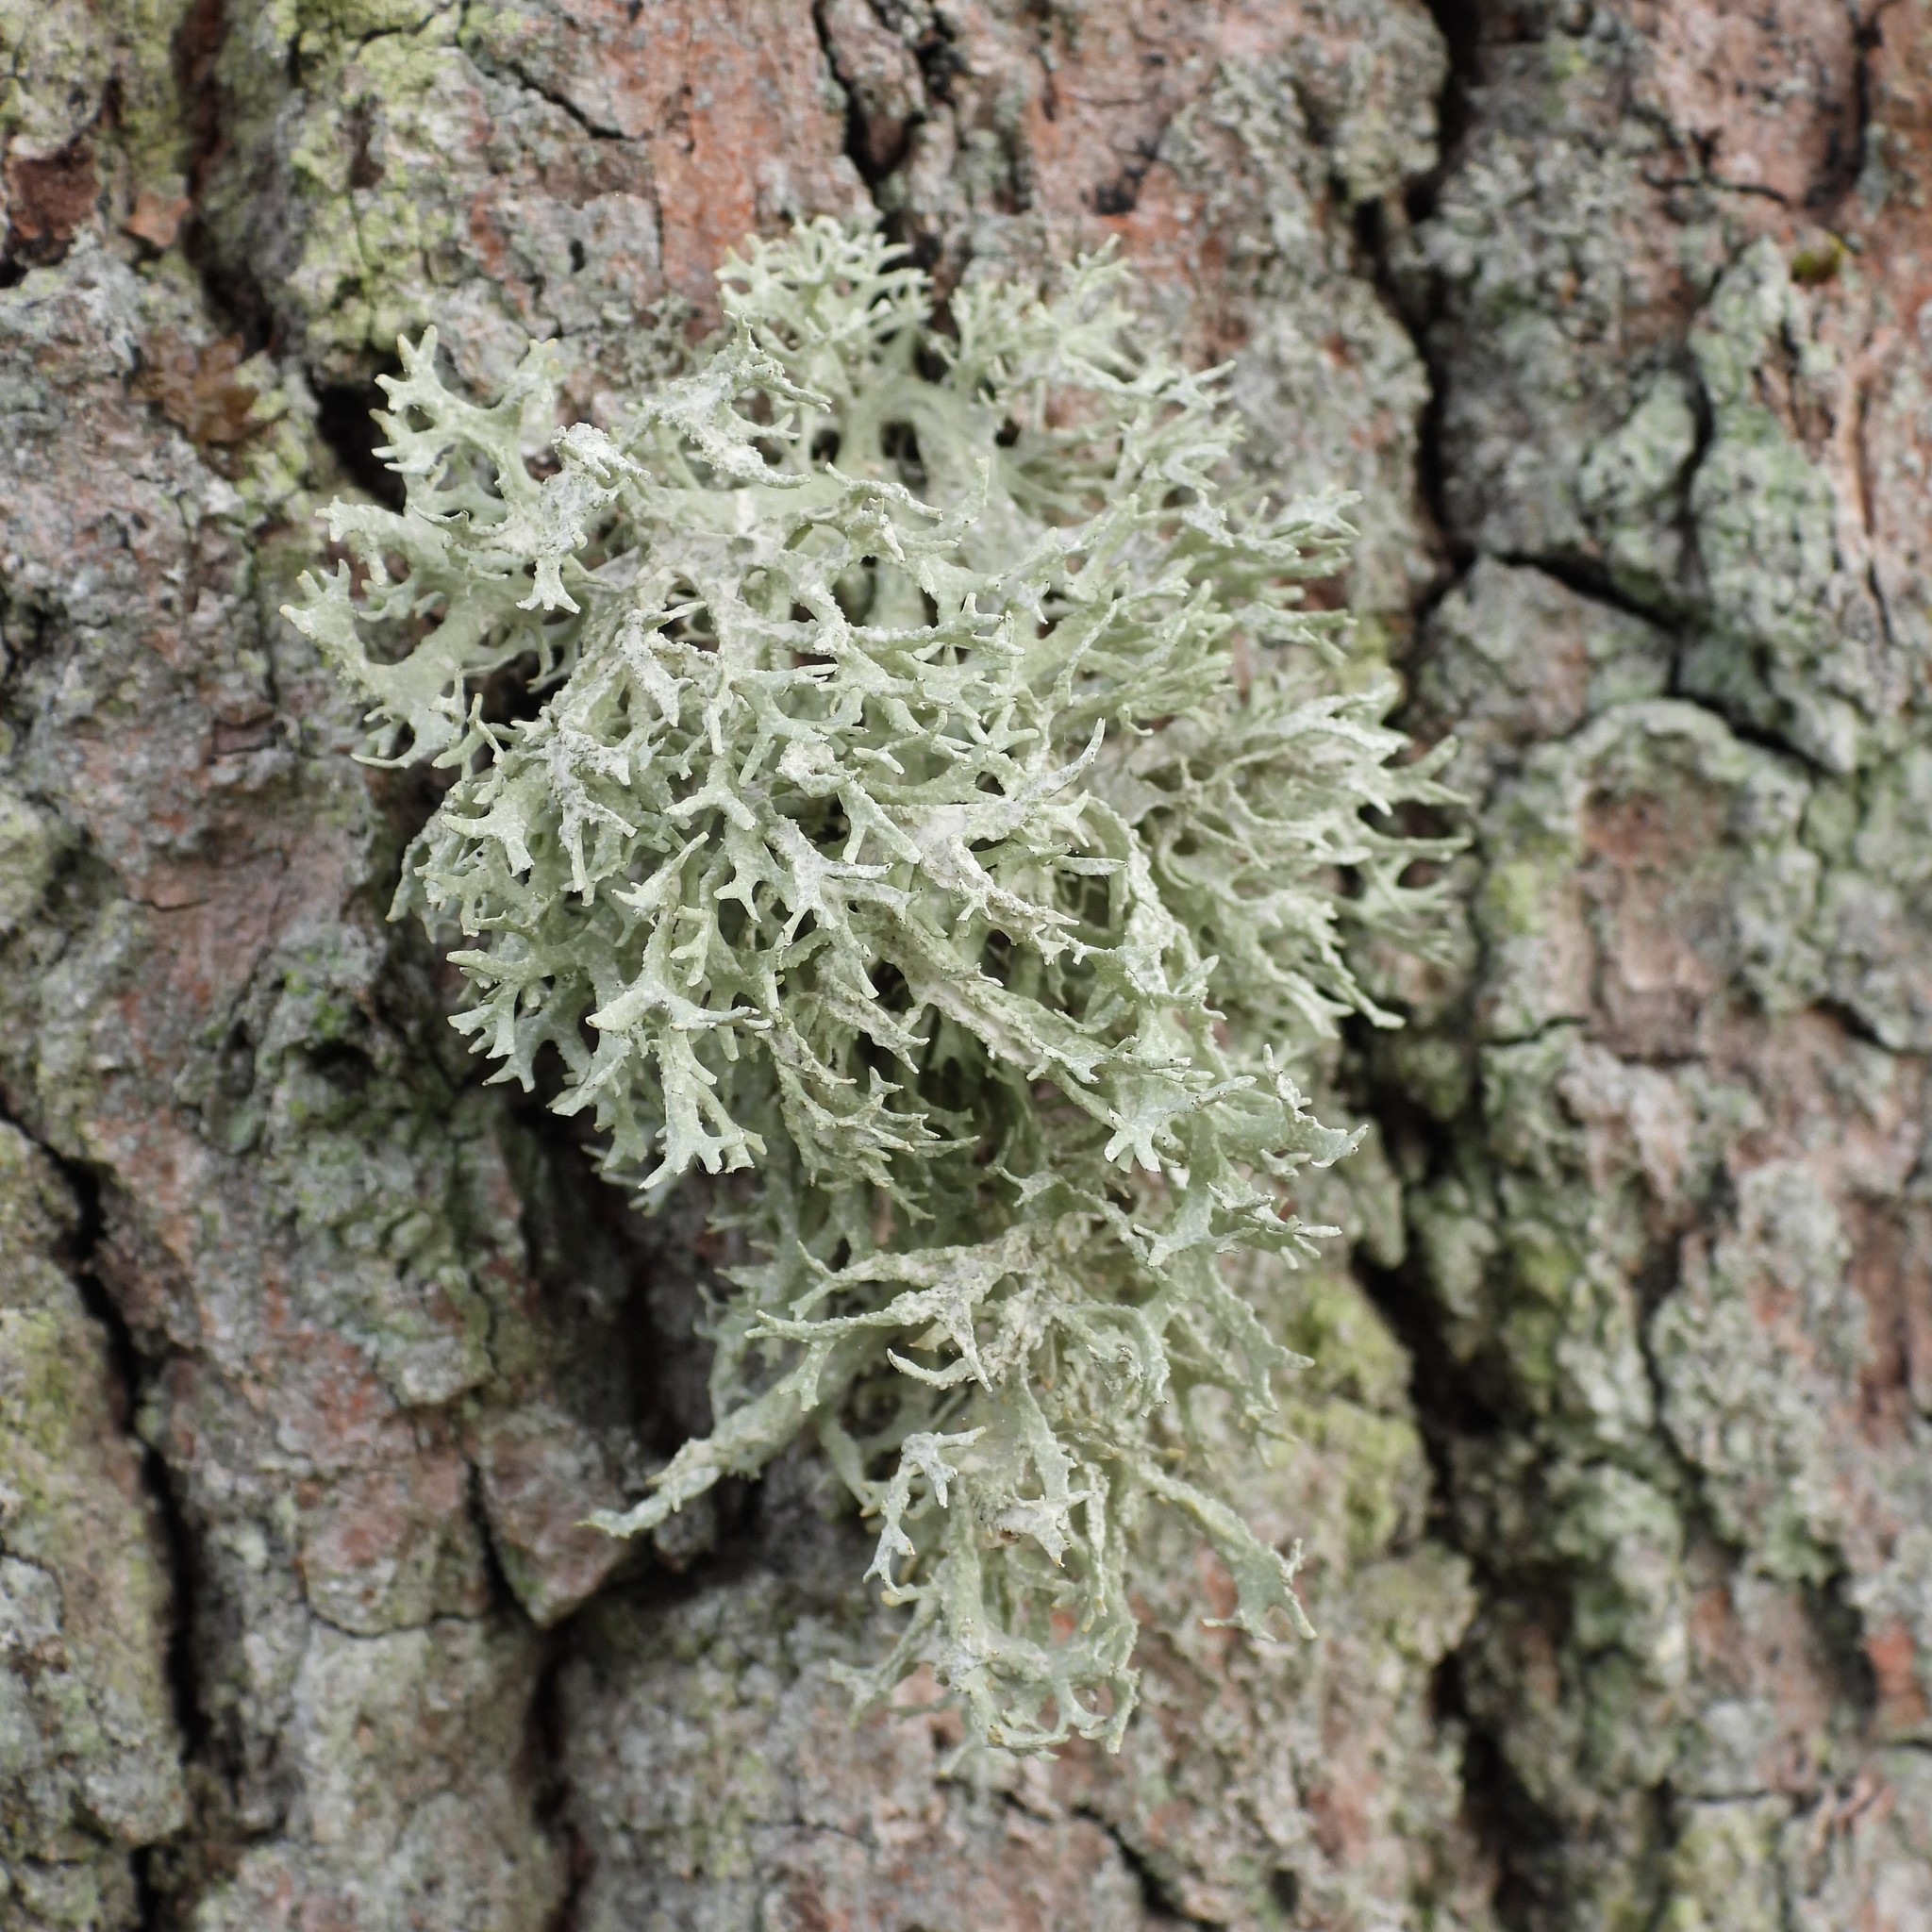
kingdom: Fungi
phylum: Ascomycota
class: Lecanoromycetes
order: Lecanorales
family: Parmeliaceae
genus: Evernia
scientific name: Evernia prunastri
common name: Oak moss
